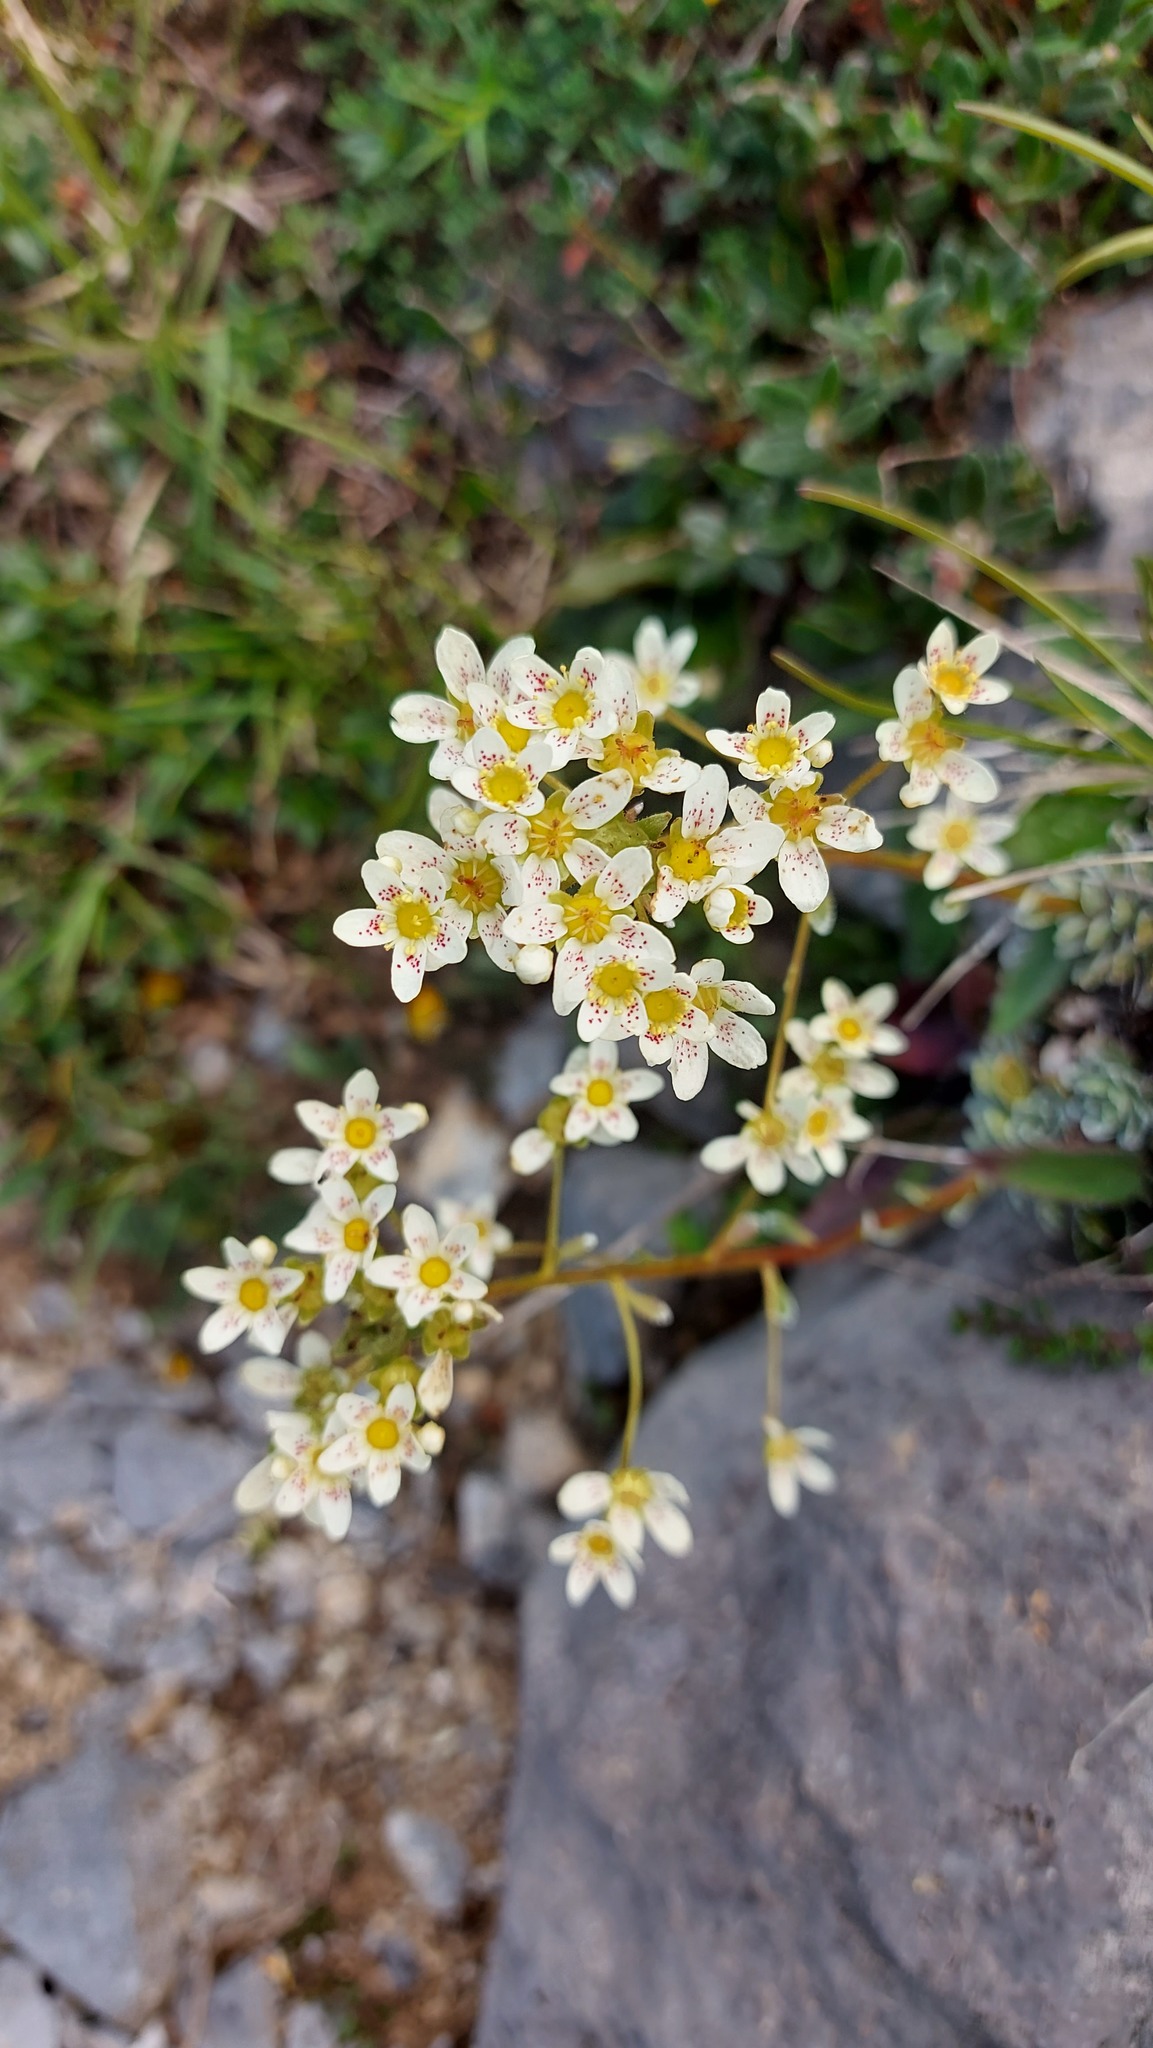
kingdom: Plantae
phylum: Tracheophyta
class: Magnoliopsida
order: Saxifragales
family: Saxifragaceae
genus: Saxifraga
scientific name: Saxifraga paniculata
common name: Livelong saxifrage
